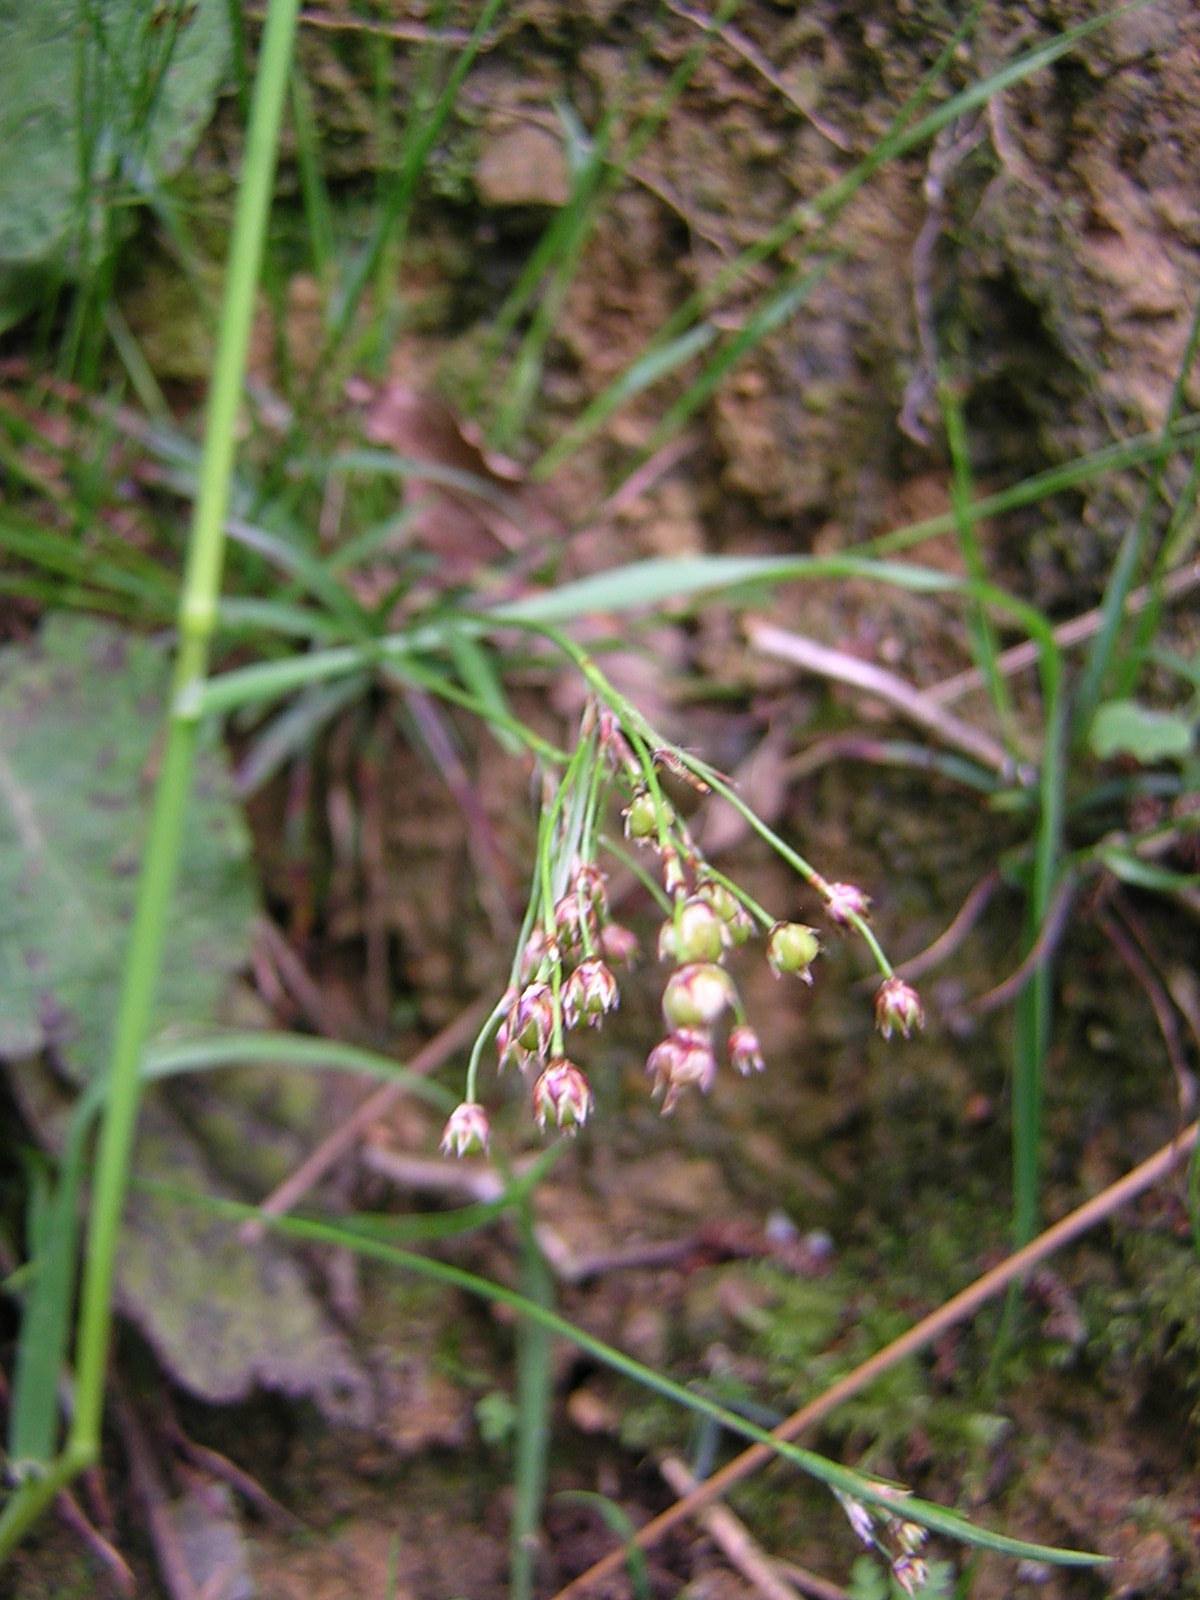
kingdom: Plantae
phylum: Tracheophyta
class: Liliopsida
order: Poales
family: Juncaceae
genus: Luzula
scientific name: Luzula pilosa
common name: Hairy wood-rush
